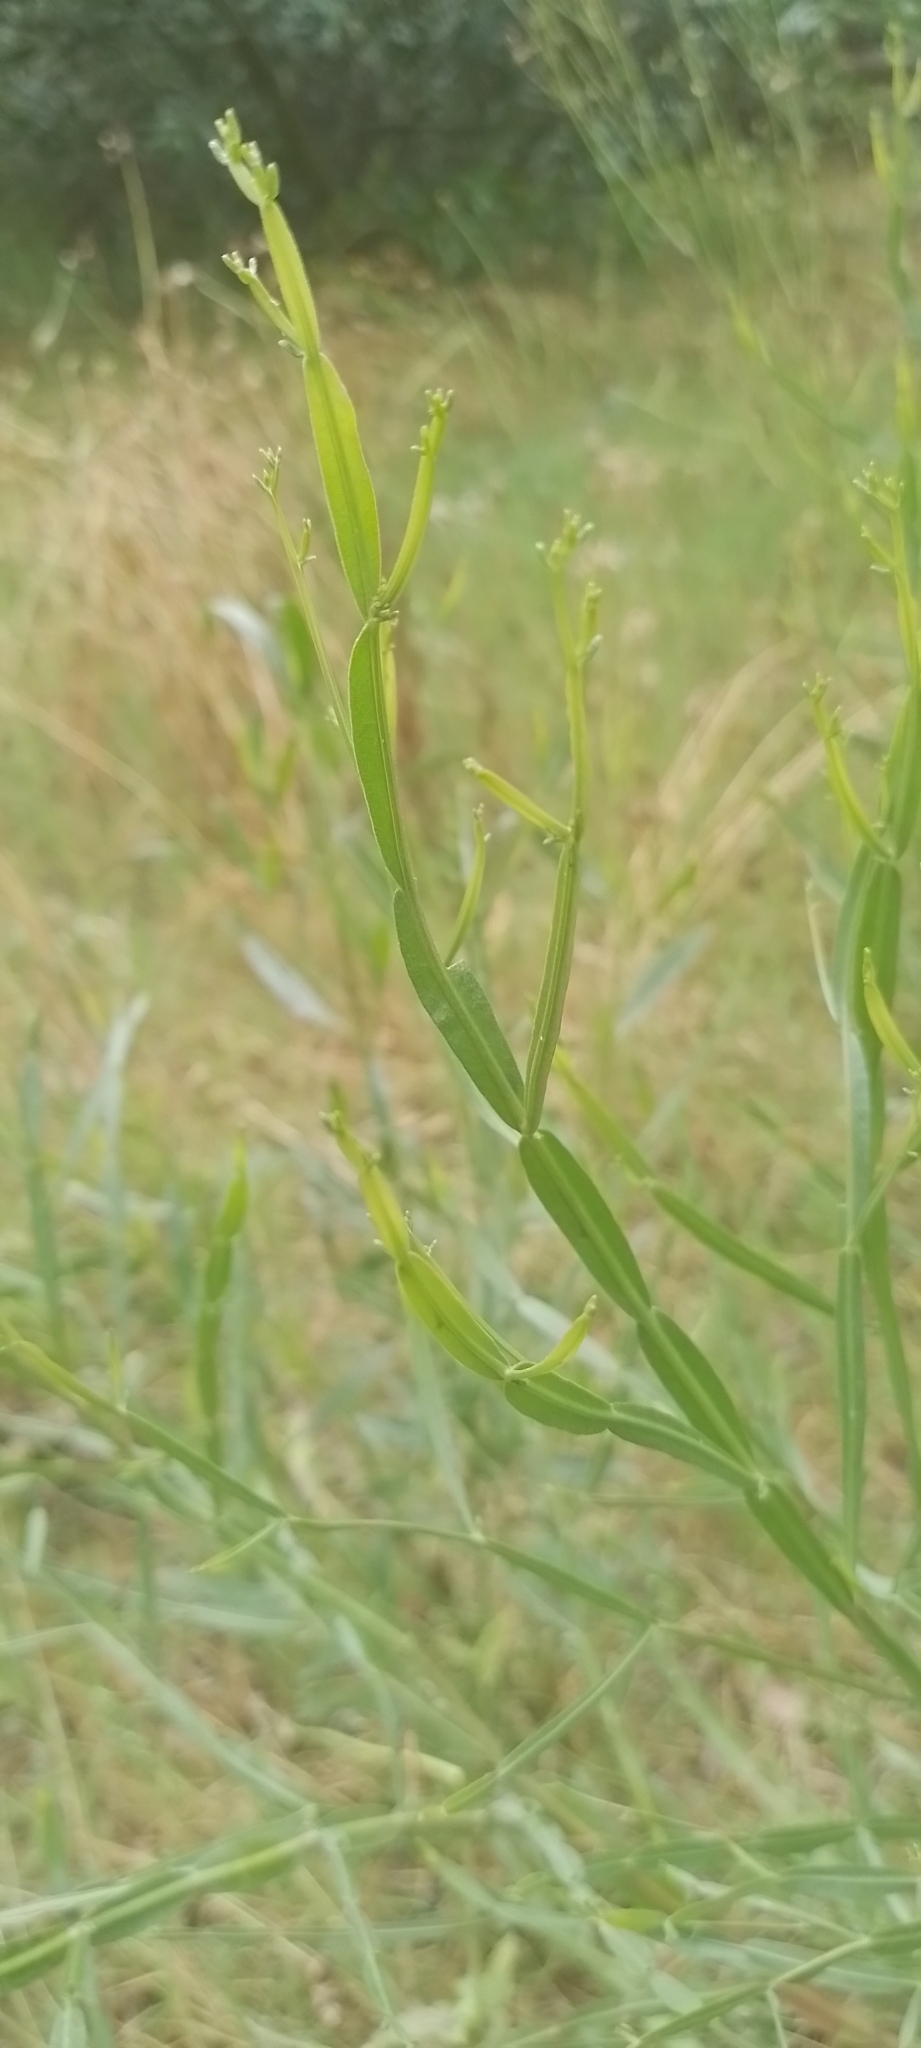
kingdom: Plantae
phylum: Tracheophyta
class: Magnoliopsida
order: Asterales
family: Asteraceae
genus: Baccharis
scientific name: Baccharis articulata
